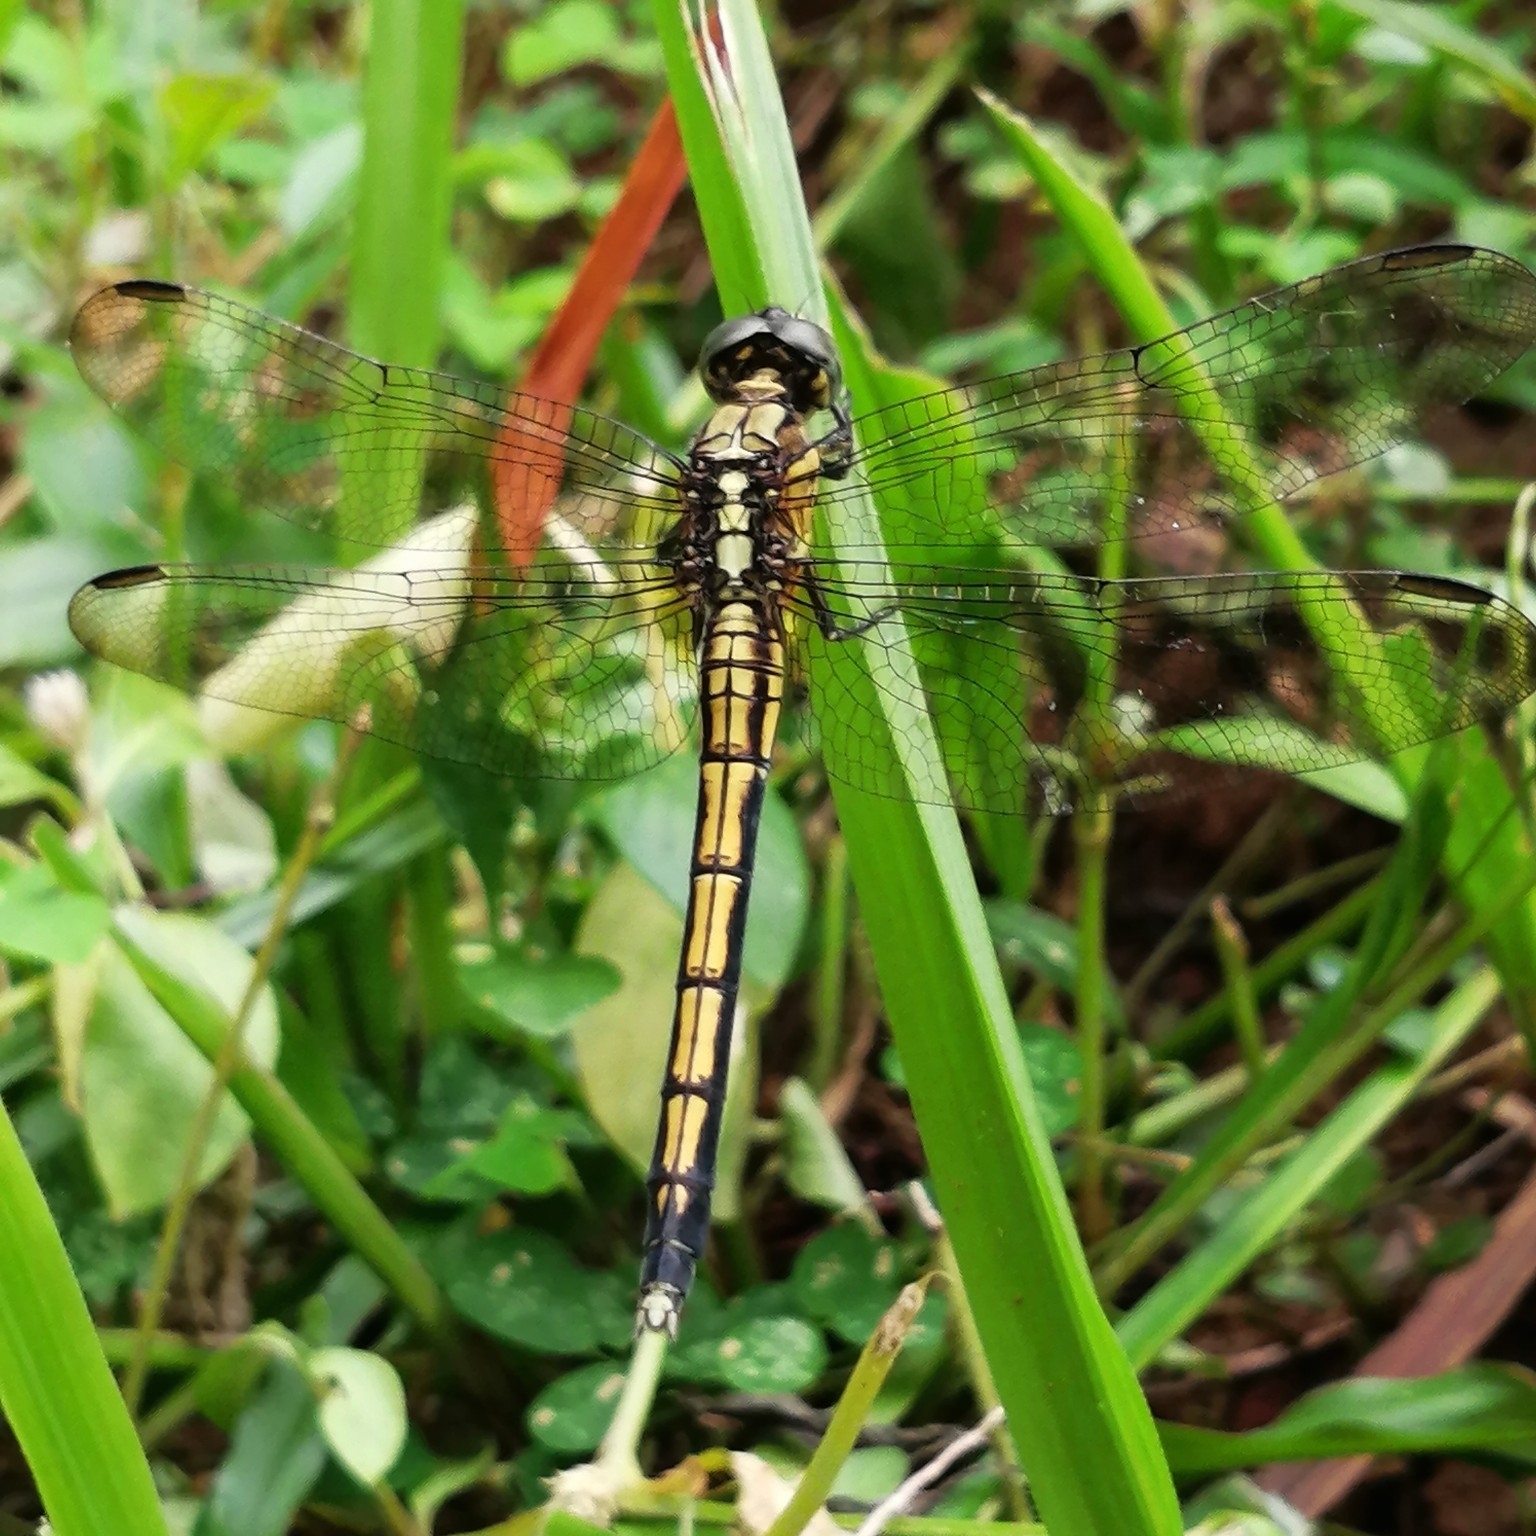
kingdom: Animalia
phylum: Arthropoda
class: Insecta
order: Odonata
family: Libellulidae
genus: Orthetrum
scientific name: Orthetrum luzonicum
